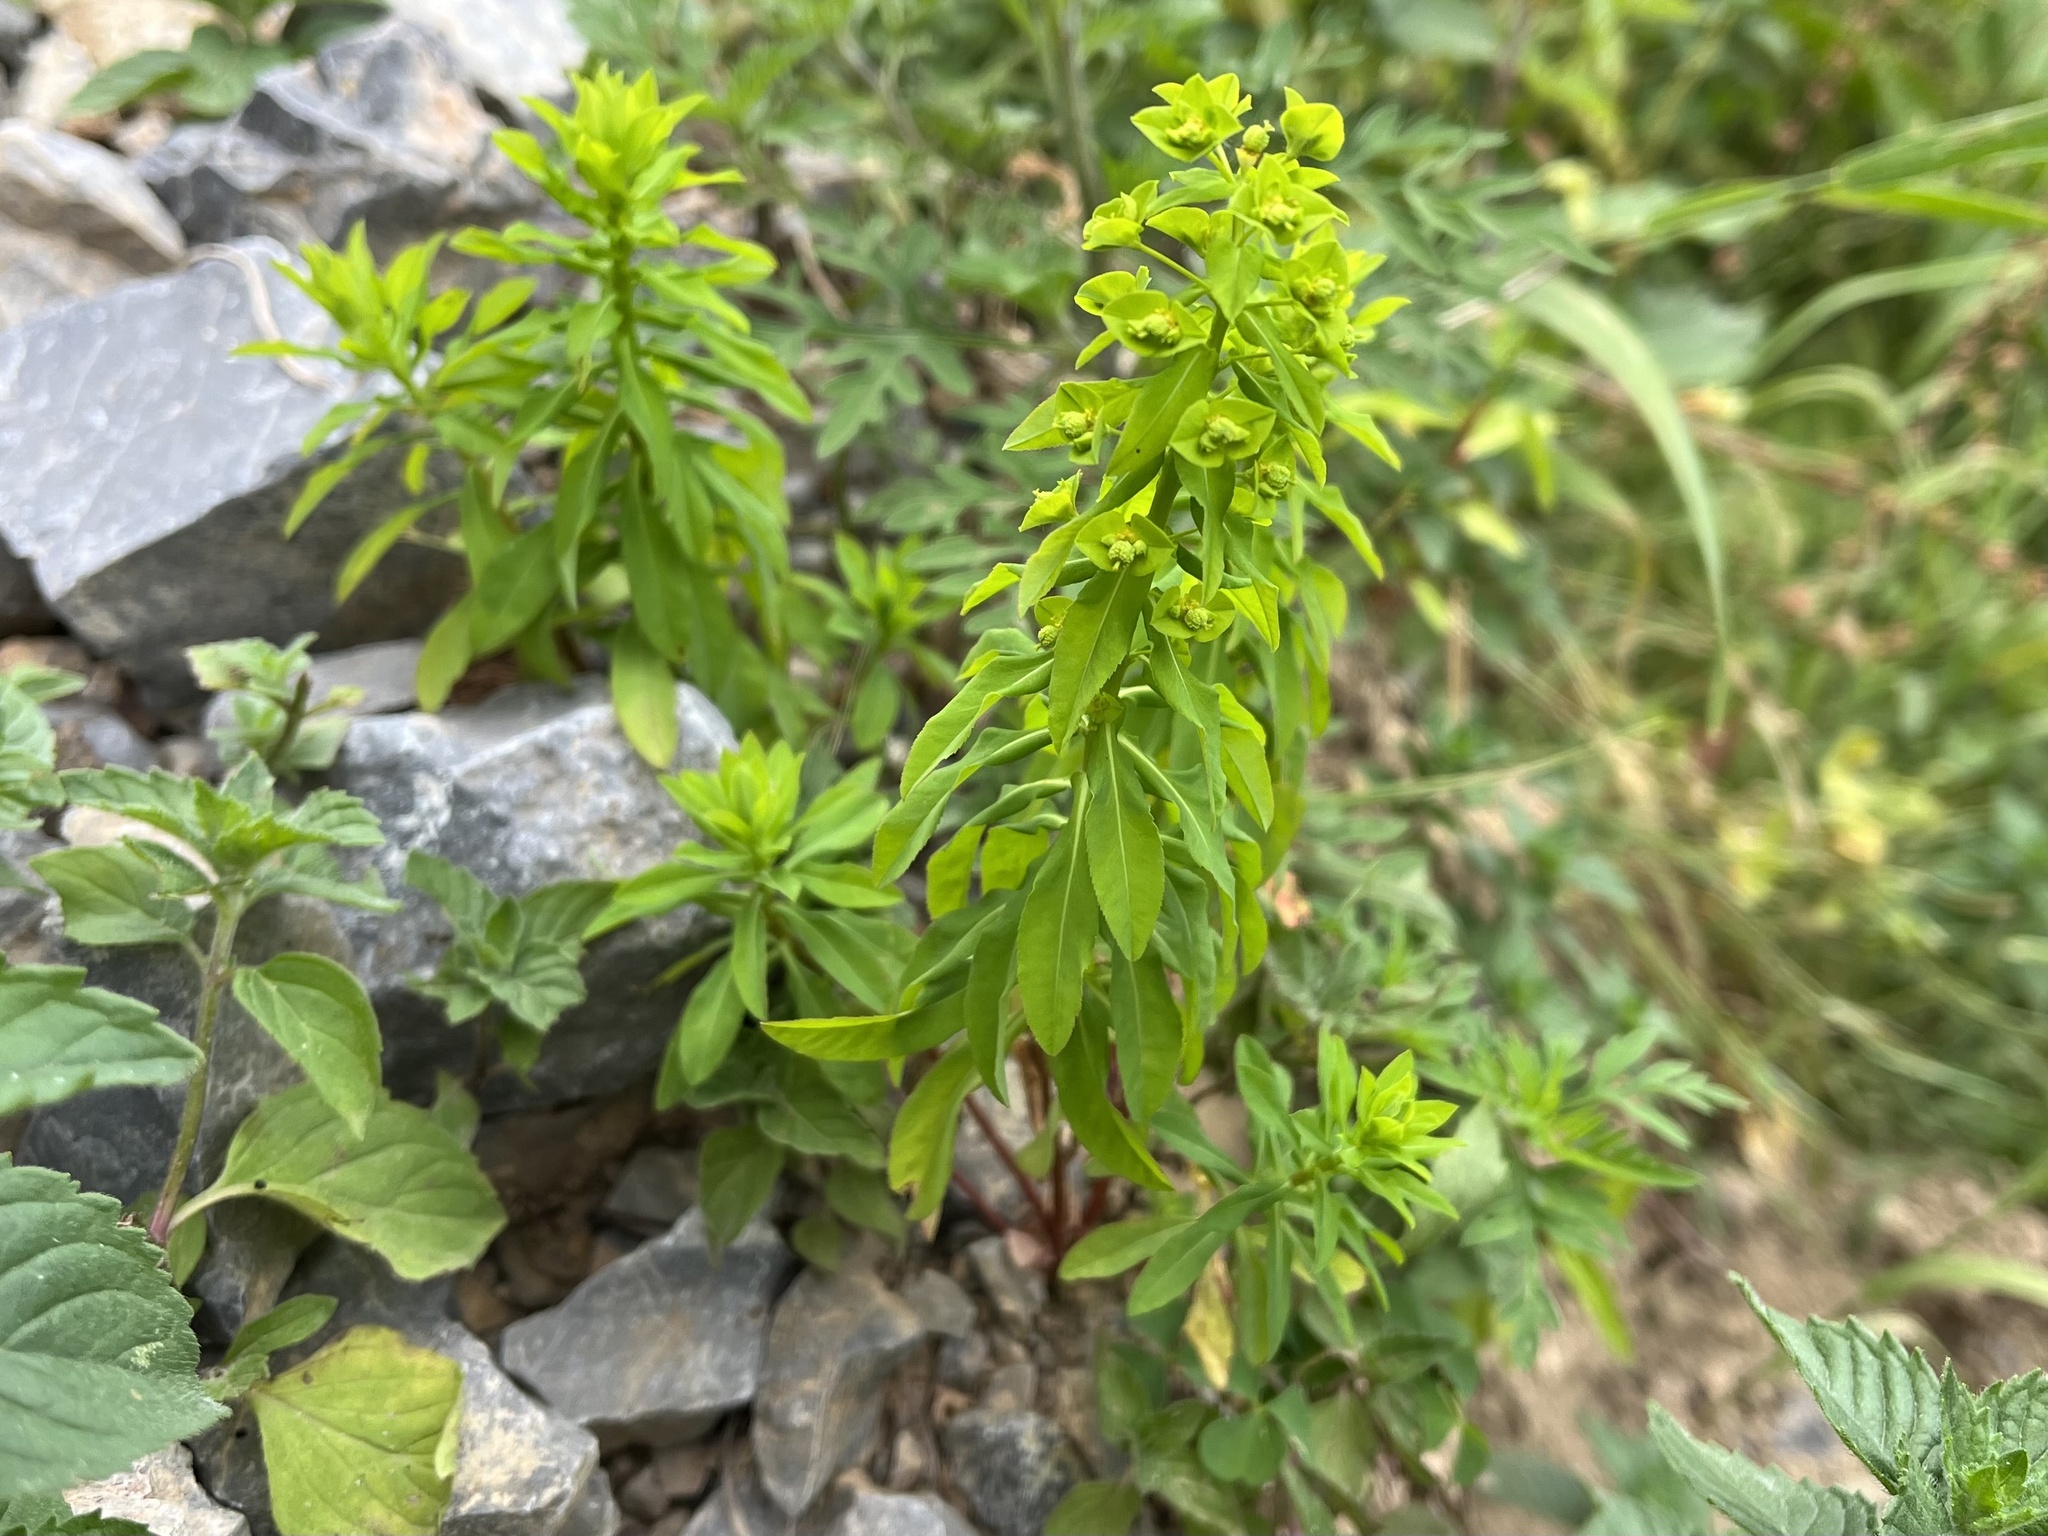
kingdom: Plantae
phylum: Tracheophyta
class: Magnoliopsida
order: Malpighiales
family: Euphorbiaceae
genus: Euphorbia
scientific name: Euphorbia stricta
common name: Upright spurge
